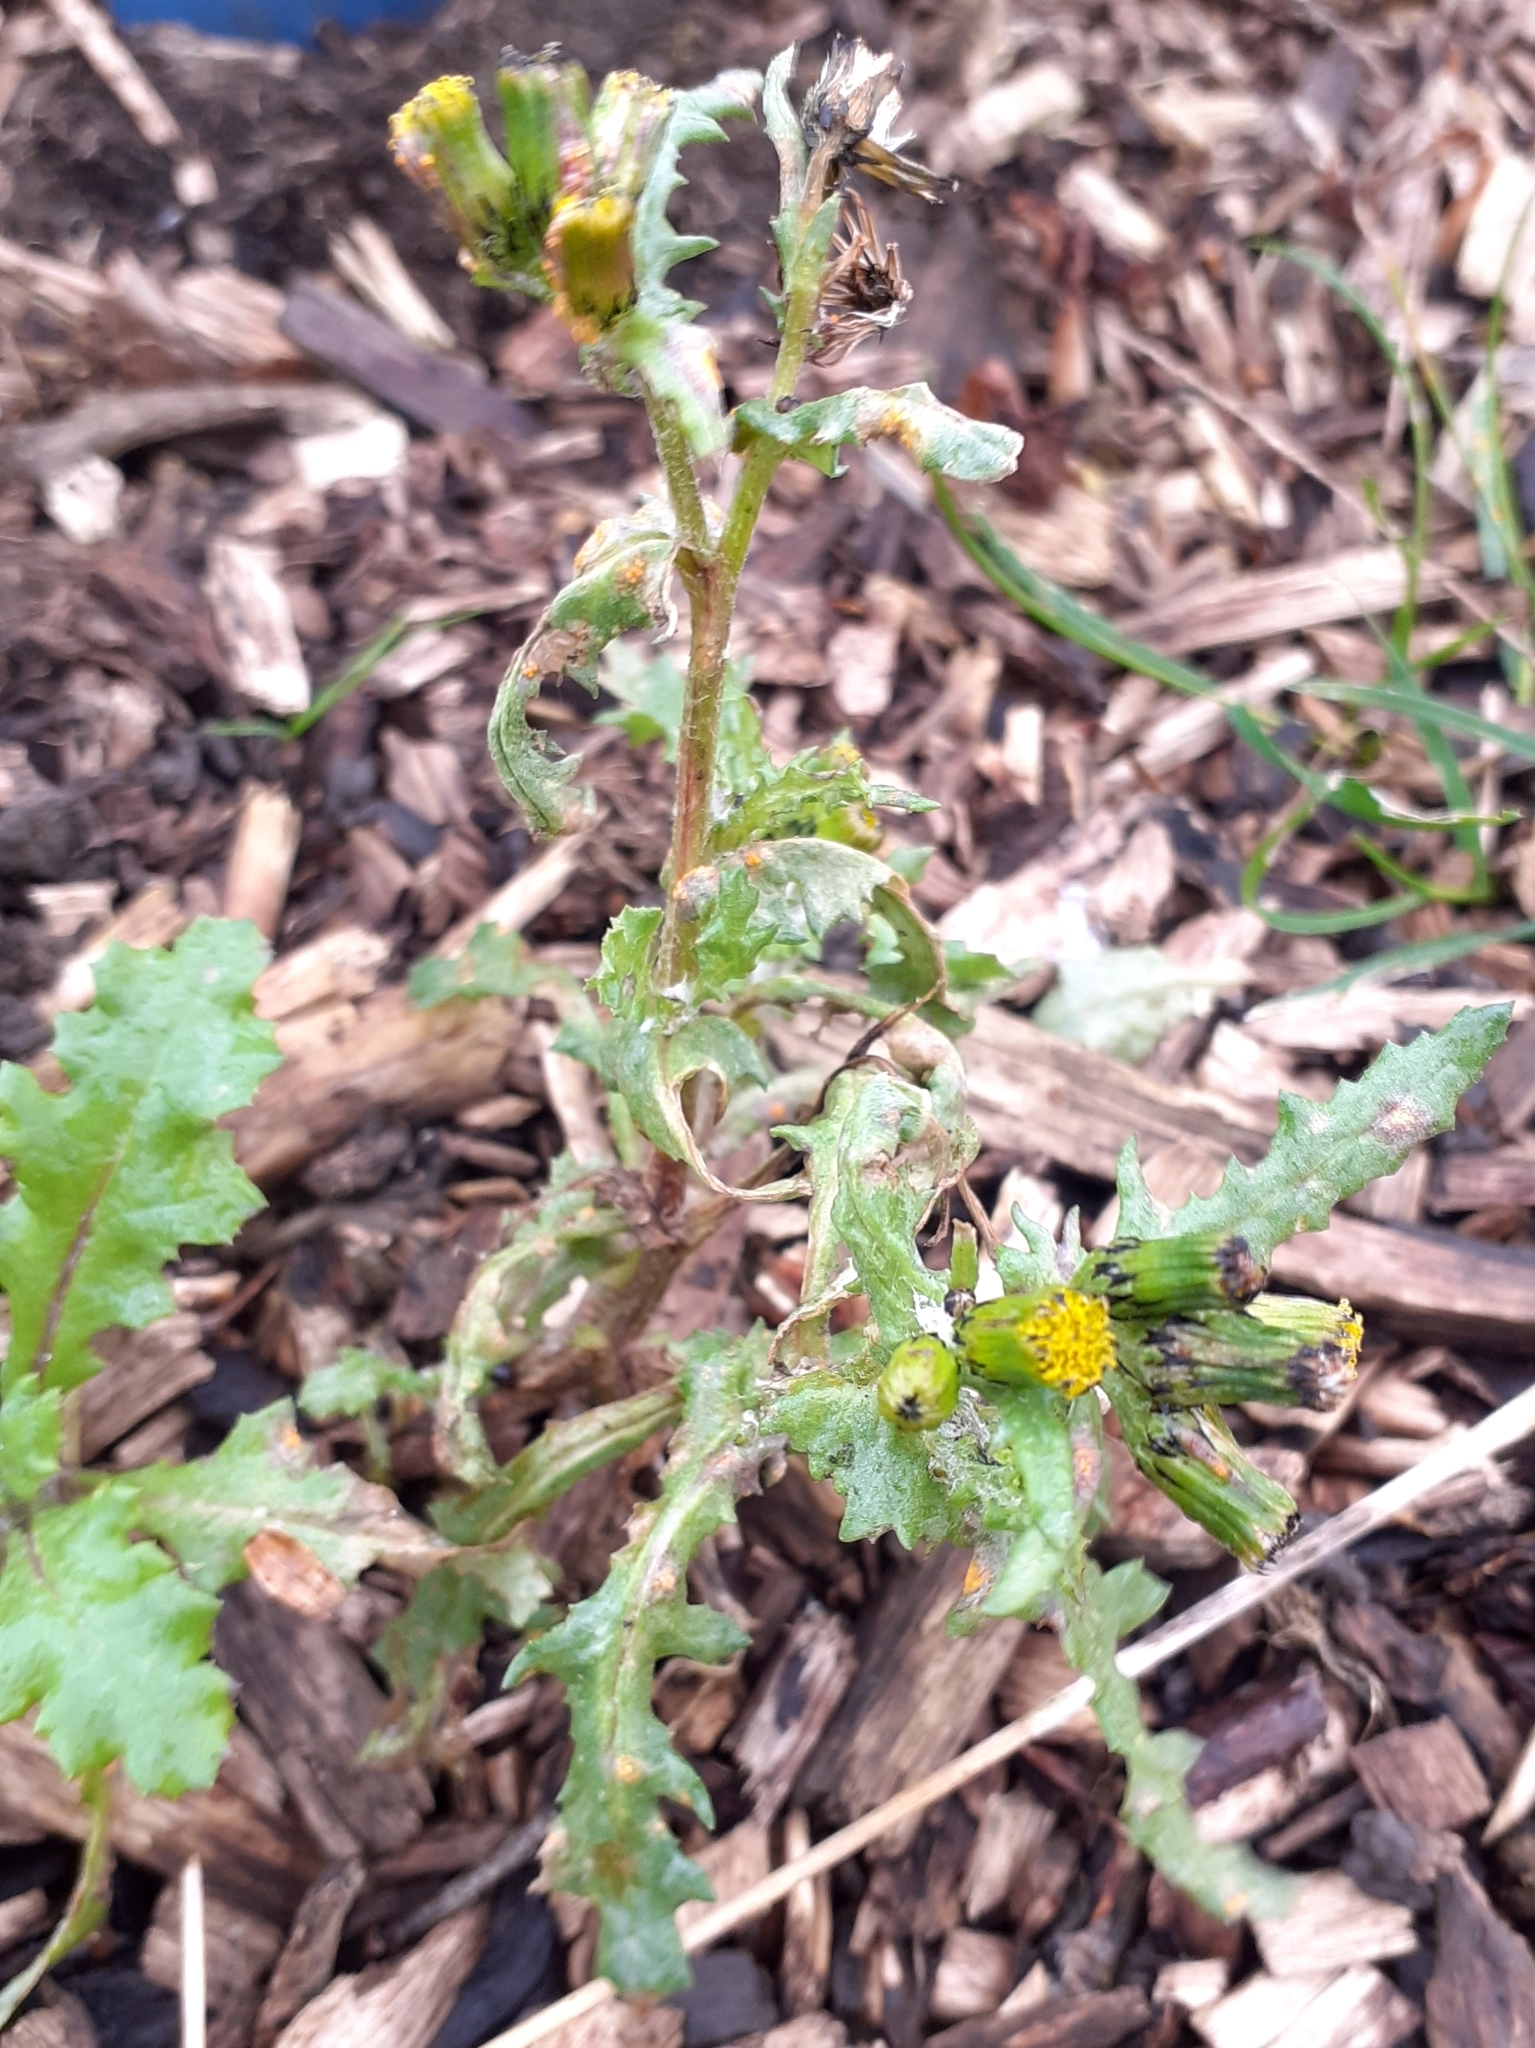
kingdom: Plantae
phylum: Tracheophyta
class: Magnoliopsida
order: Asterales
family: Asteraceae
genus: Senecio
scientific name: Senecio vulgaris
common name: Old-man-in-the-spring
